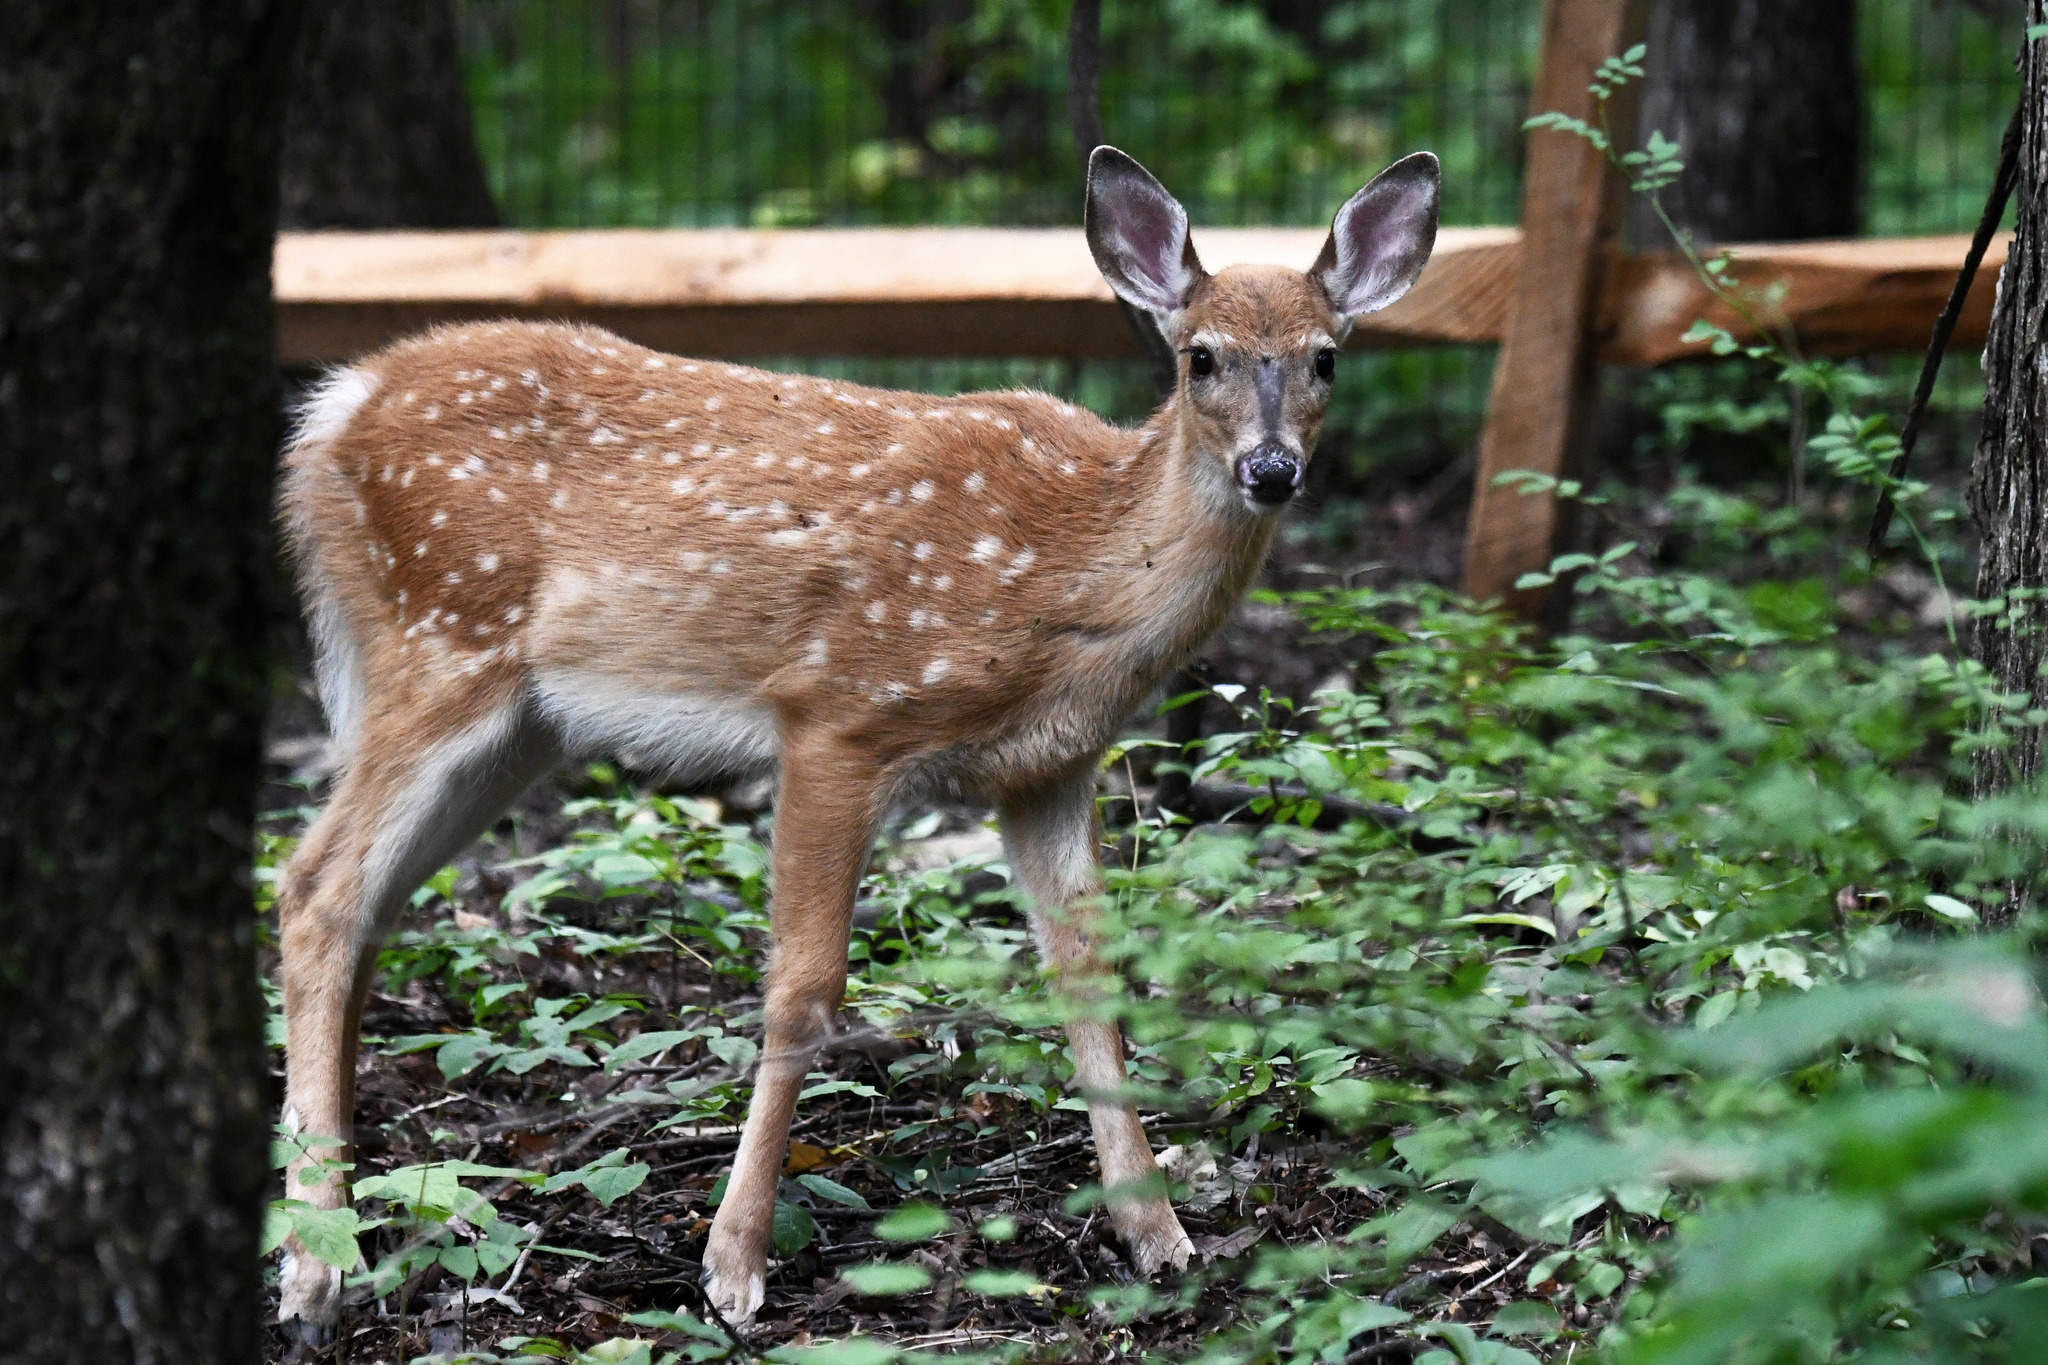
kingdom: Animalia
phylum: Chordata
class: Mammalia
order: Artiodactyla
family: Cervidae
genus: Odocoileus
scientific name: Odocoileus virginianus
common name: White-tailed deer
